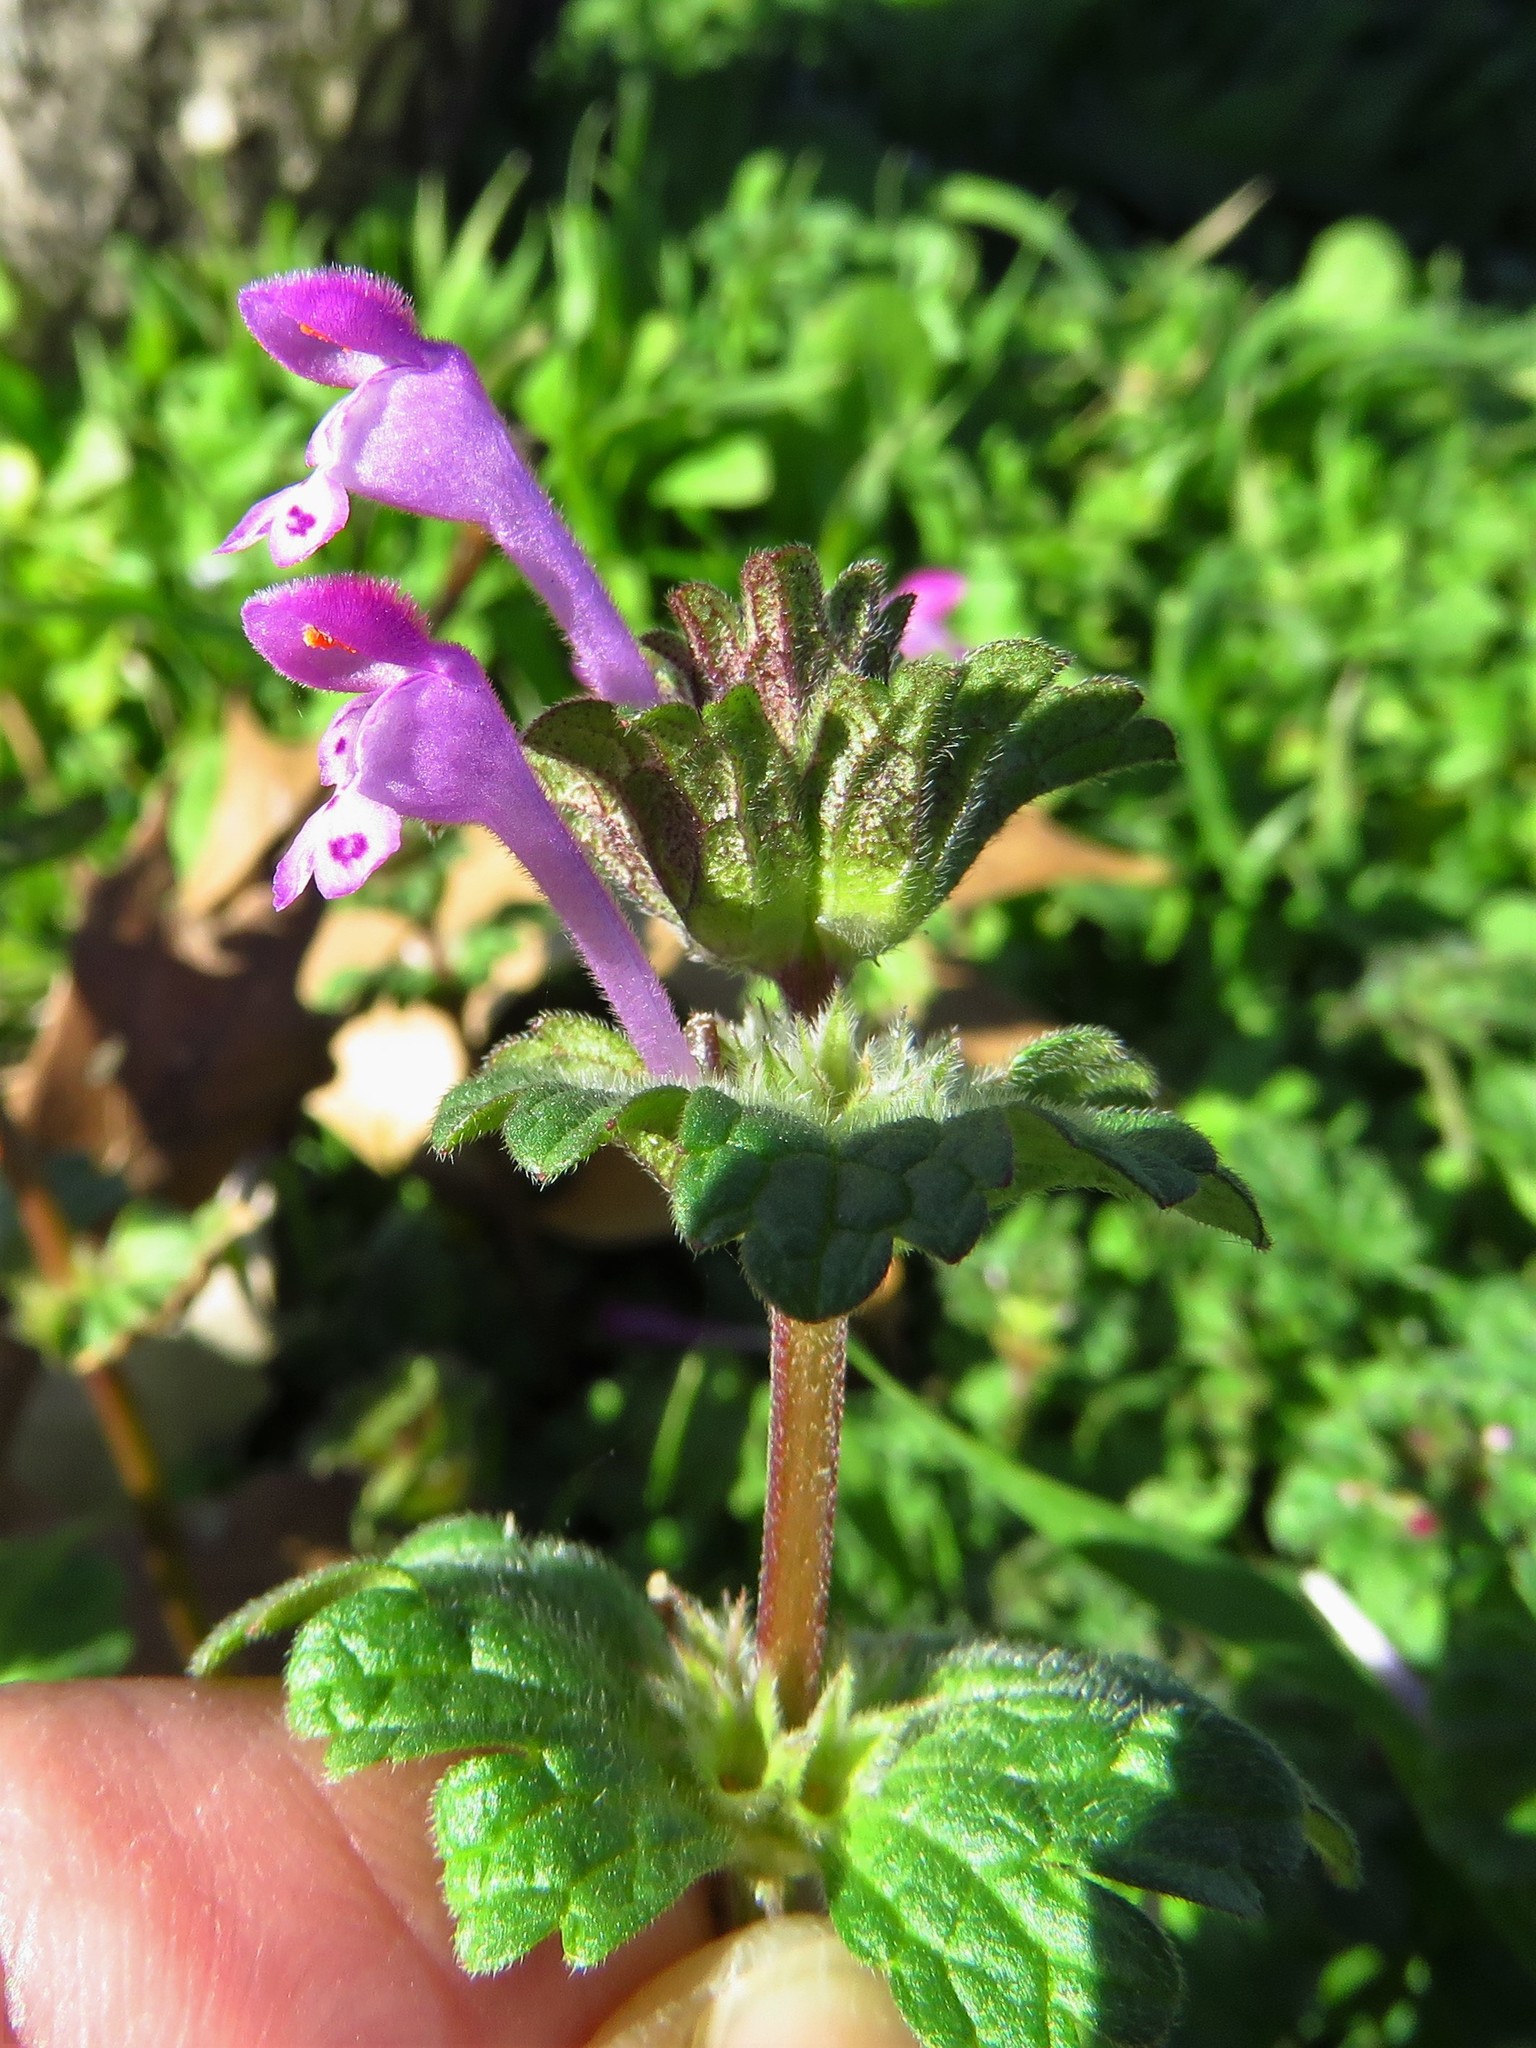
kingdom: Plantae
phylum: Tracheophyta
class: Magnoliopsida
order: Lamiales
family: Lamiaceae
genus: Lamium
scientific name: Lamium amplexicaule
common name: Henbit dead-nettle
